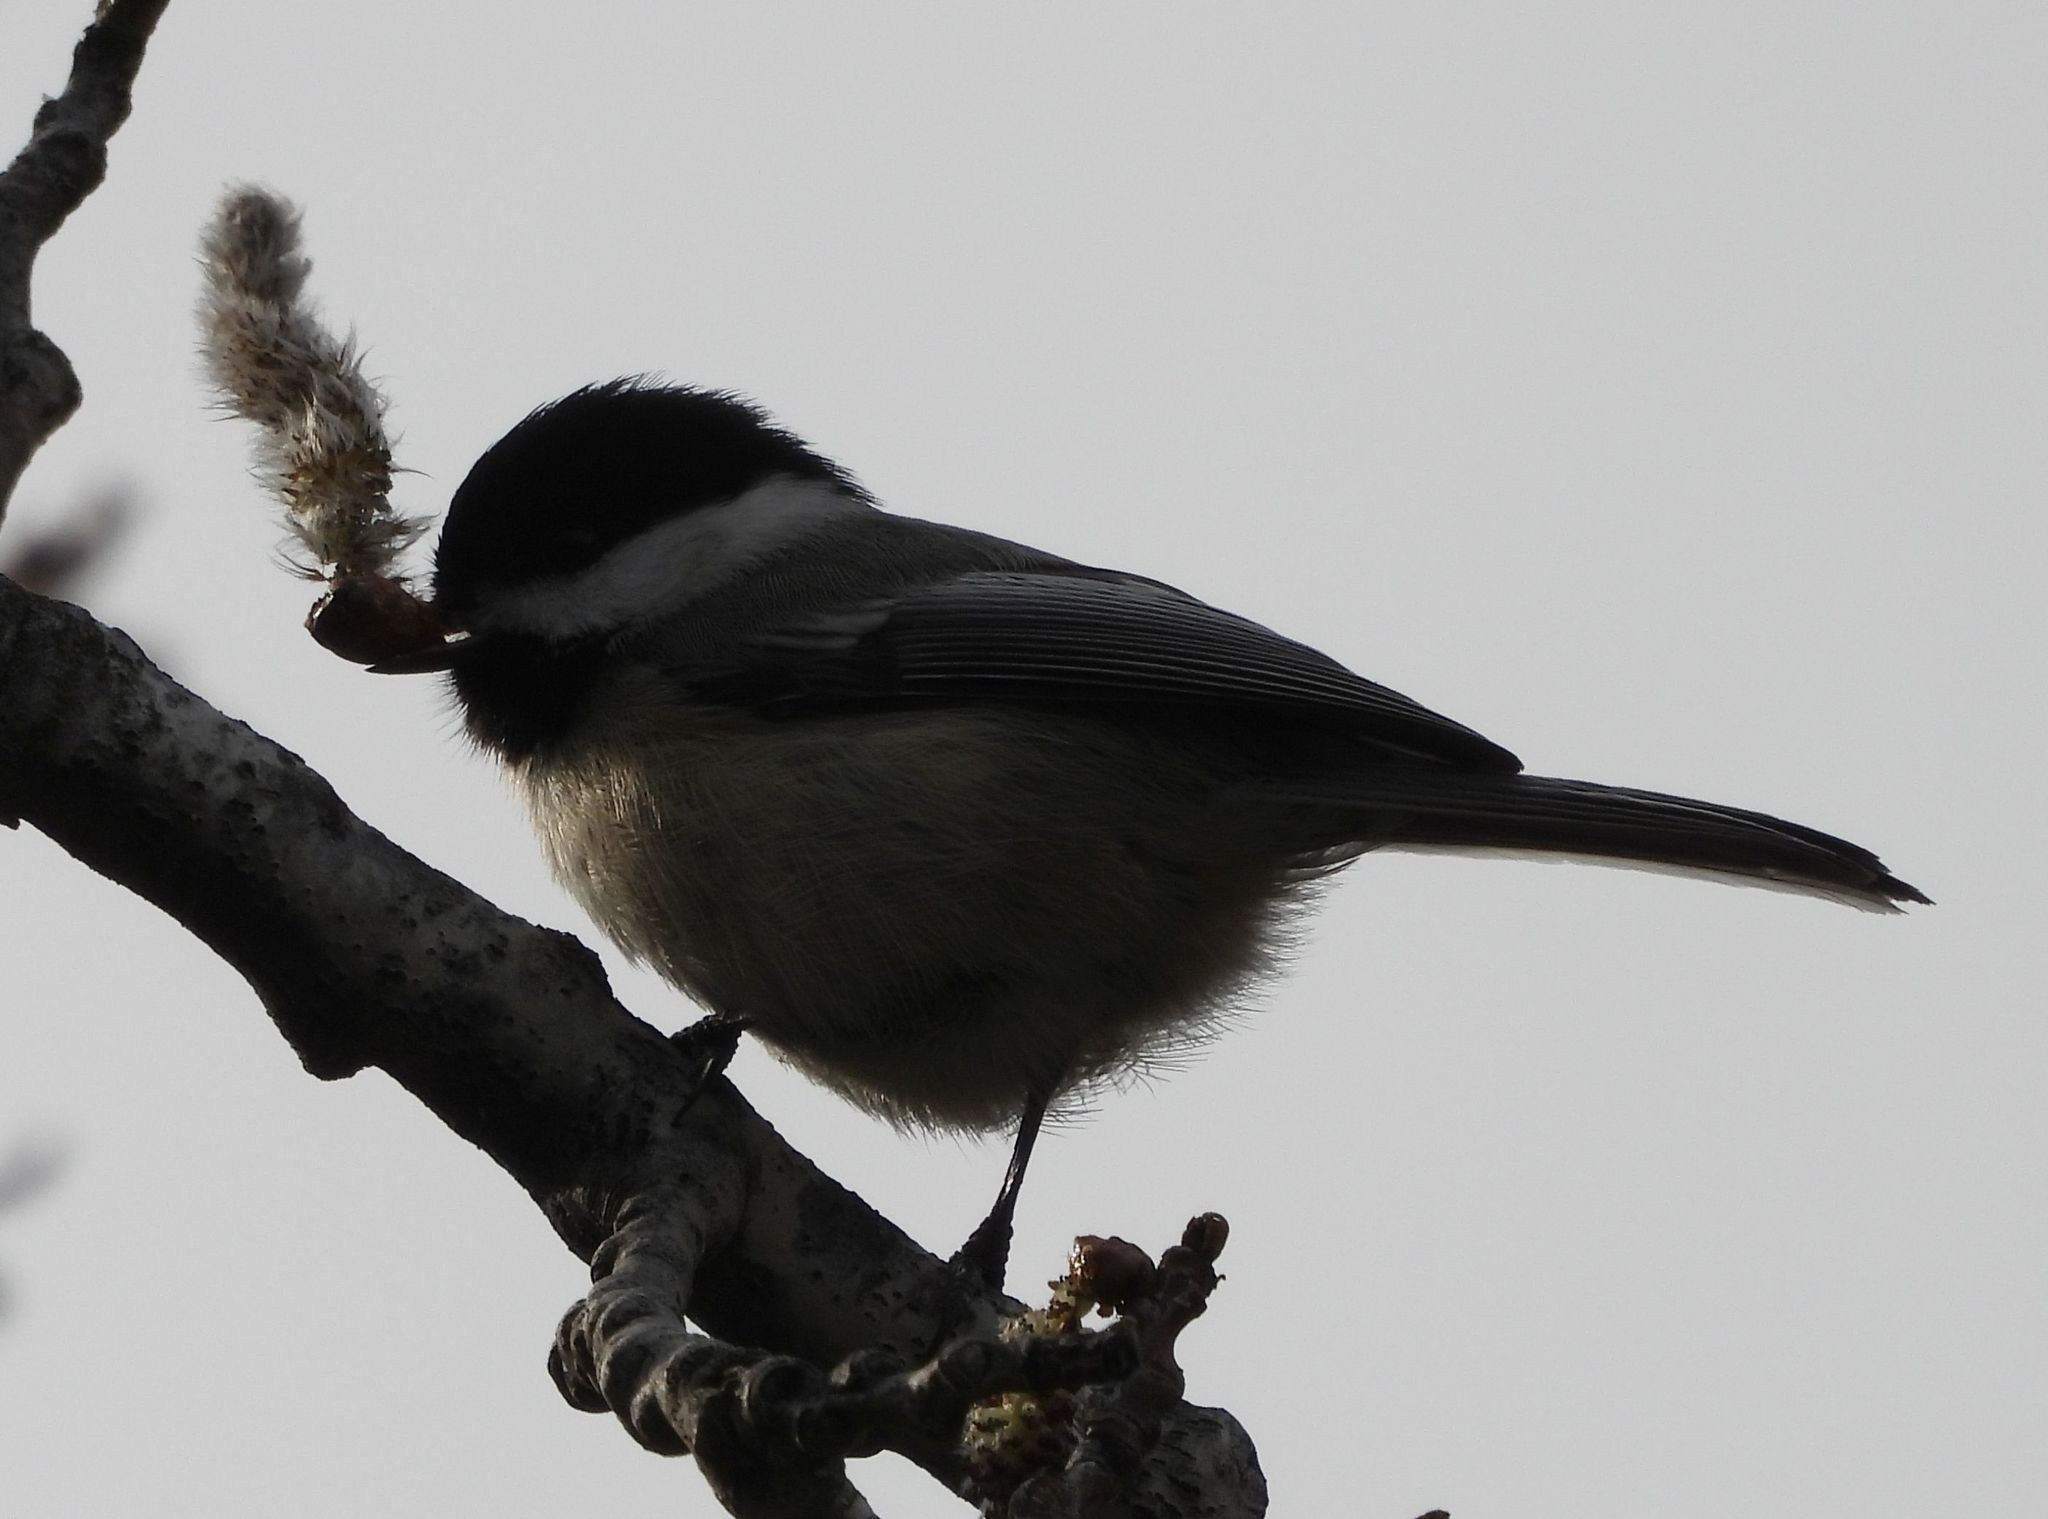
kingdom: Animalia
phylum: Chordata
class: Aves
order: Passeriformes
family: Paridae
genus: Poecile
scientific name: Poecile atricapillus
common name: Black-capped chickadee
